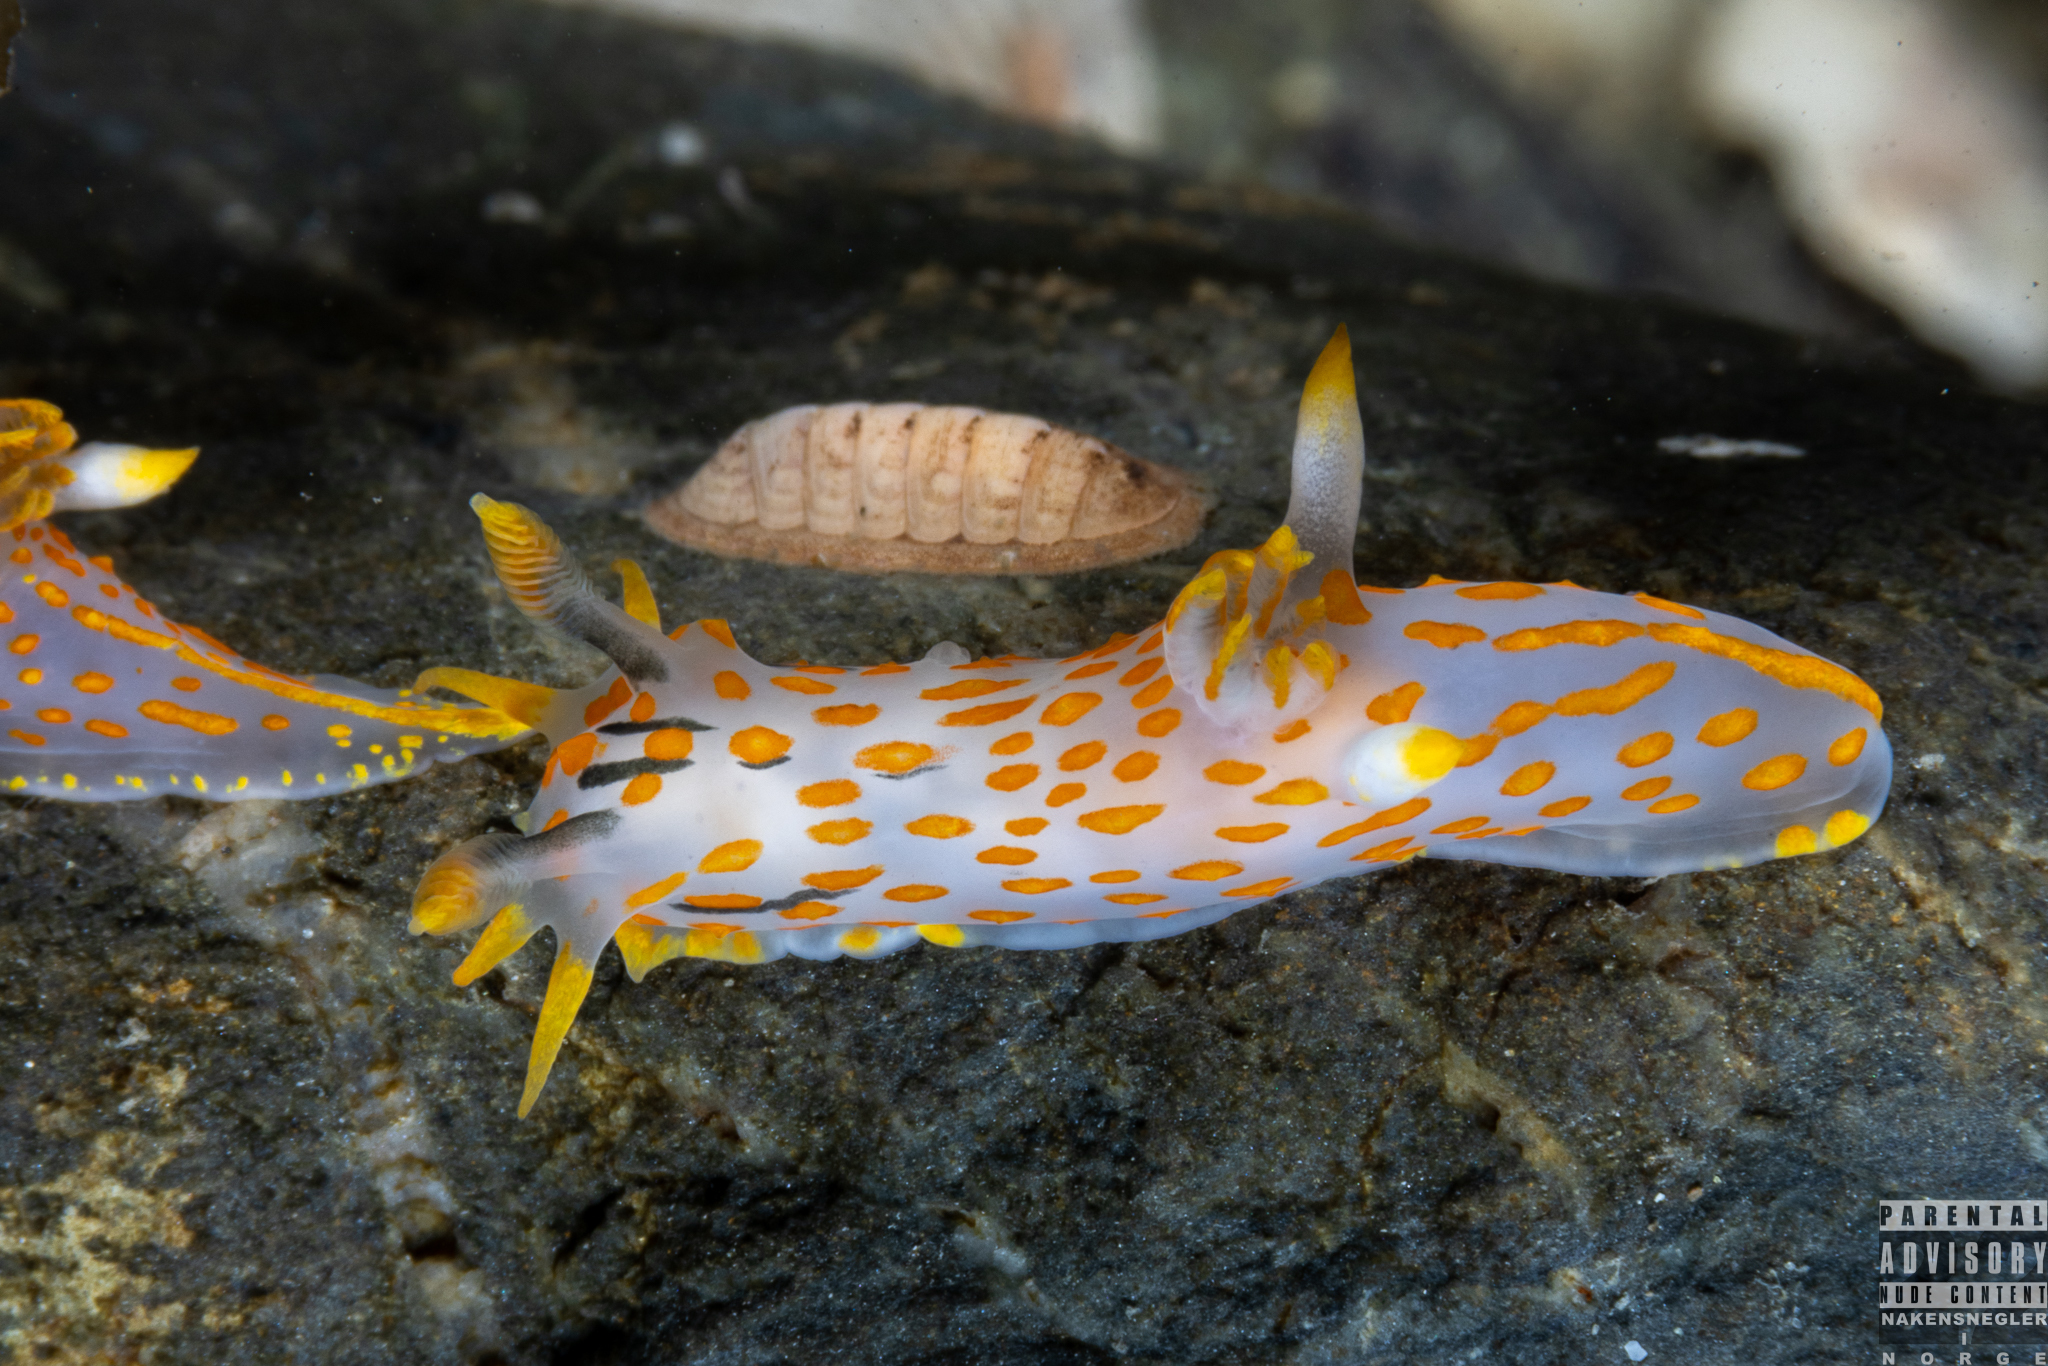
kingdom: Animalia
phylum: Mollusca
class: Gastropoda
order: Nudibranchia
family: Polyceridae
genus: Polycera
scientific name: Polycera quadrilineata
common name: Four-striped polycera
